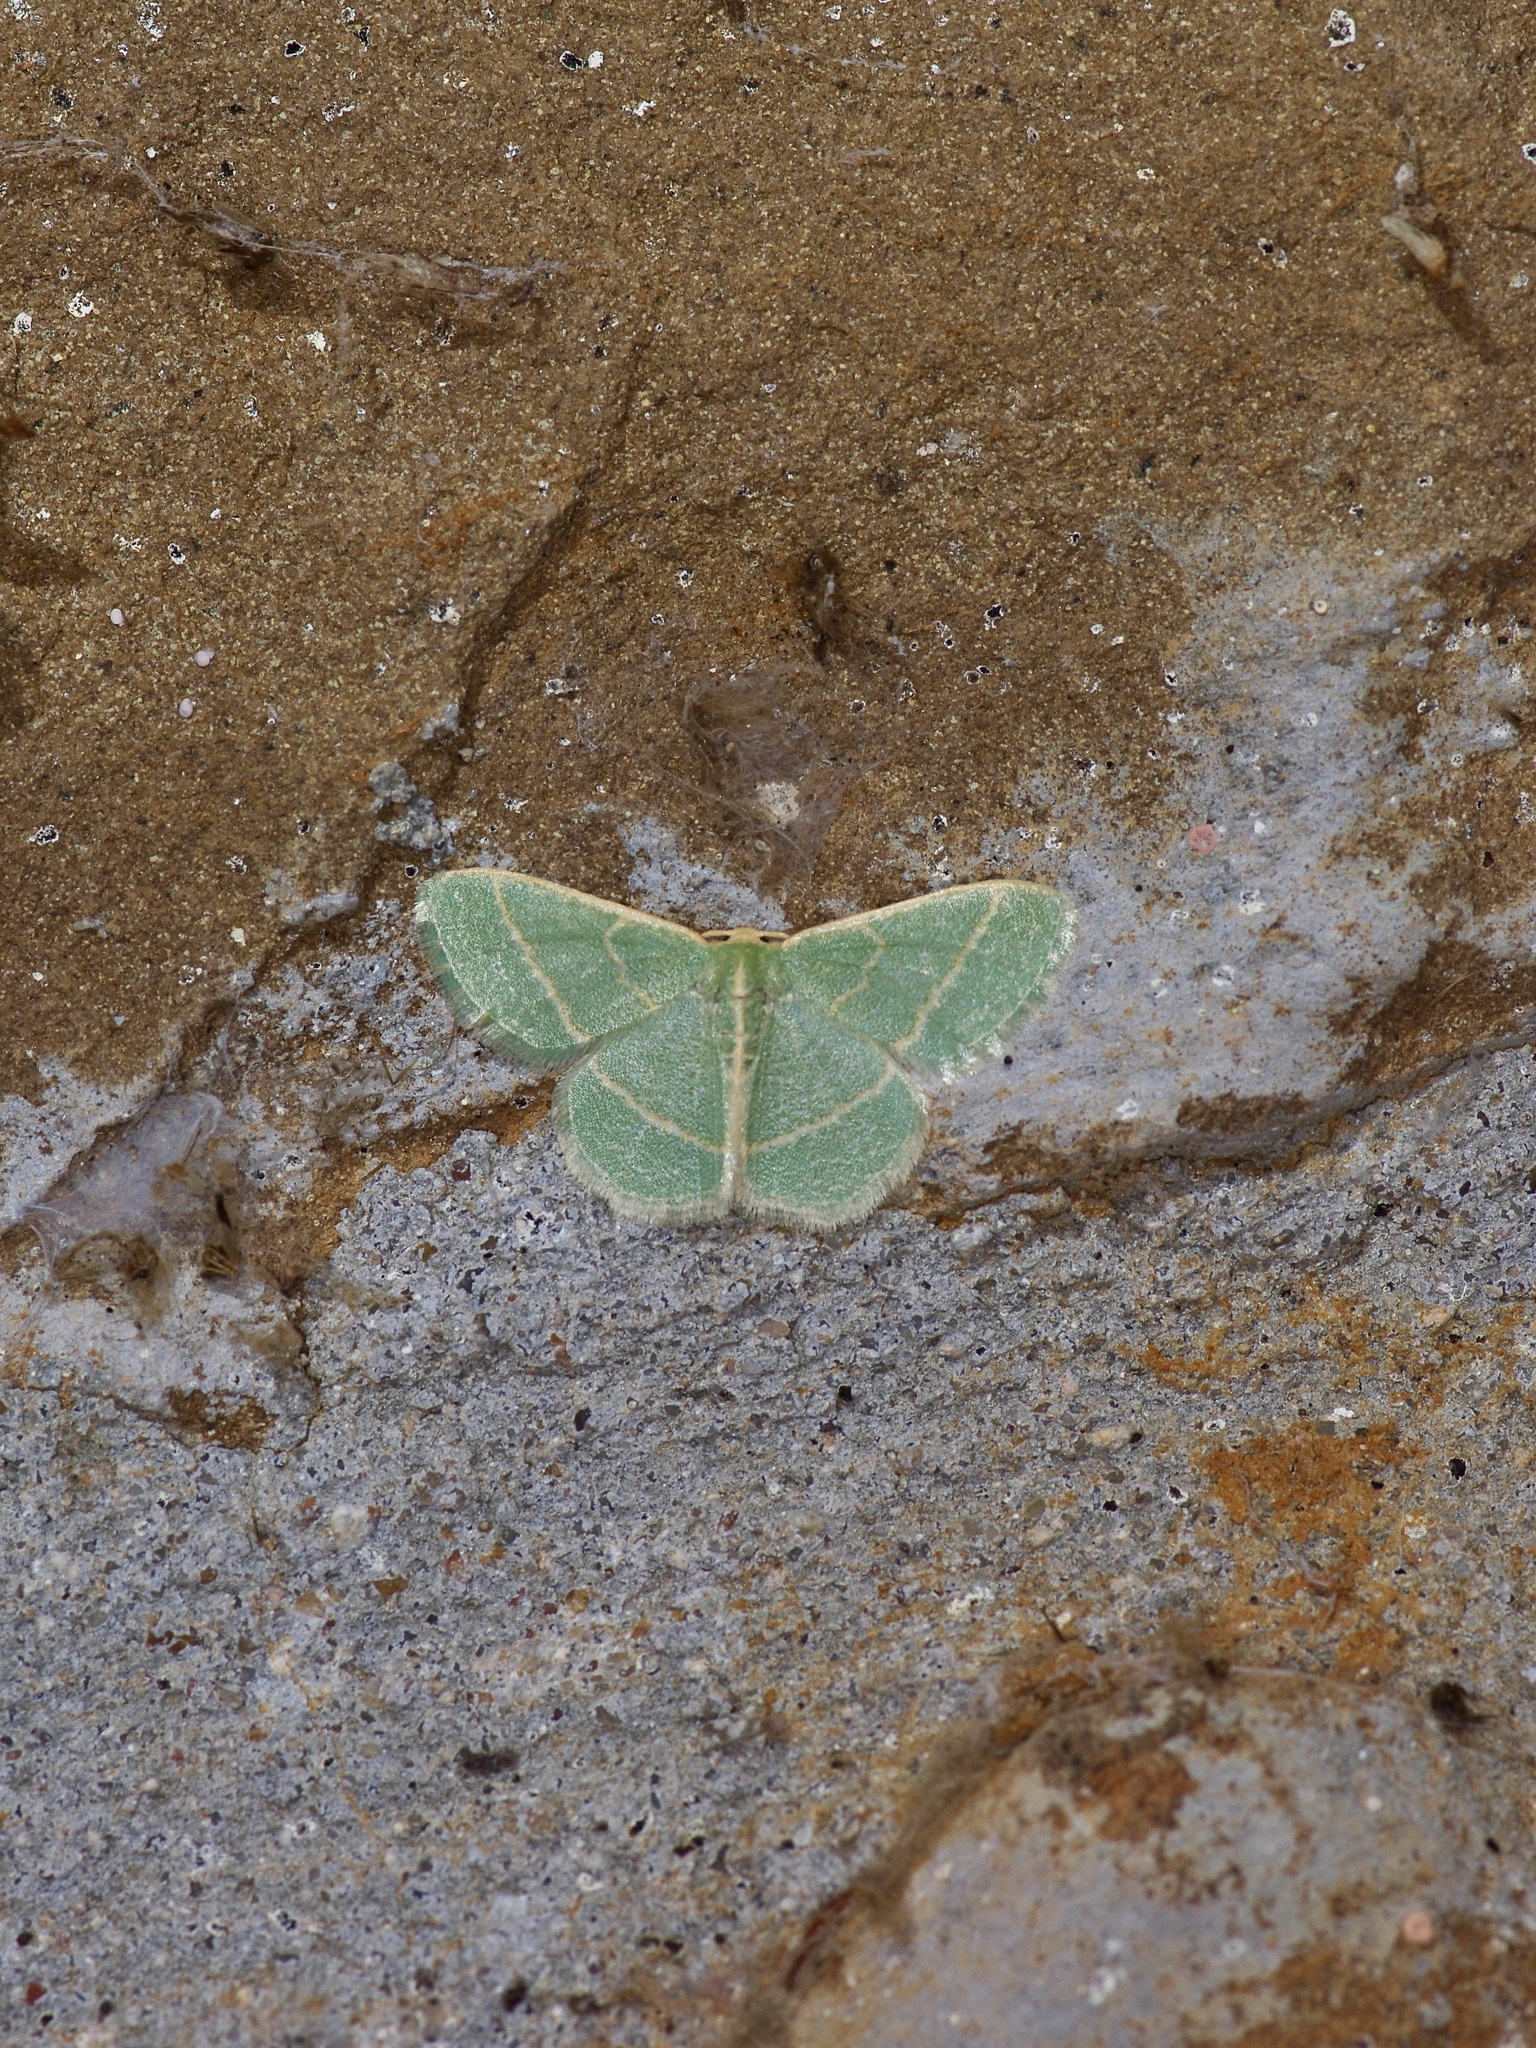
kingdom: Animalia
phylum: Arthropoda
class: Insecta
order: Lepidoptera
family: Geometridae
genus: Chlorochlamys
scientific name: Chlorochlamys chloroleucaria
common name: Blackberry looper
